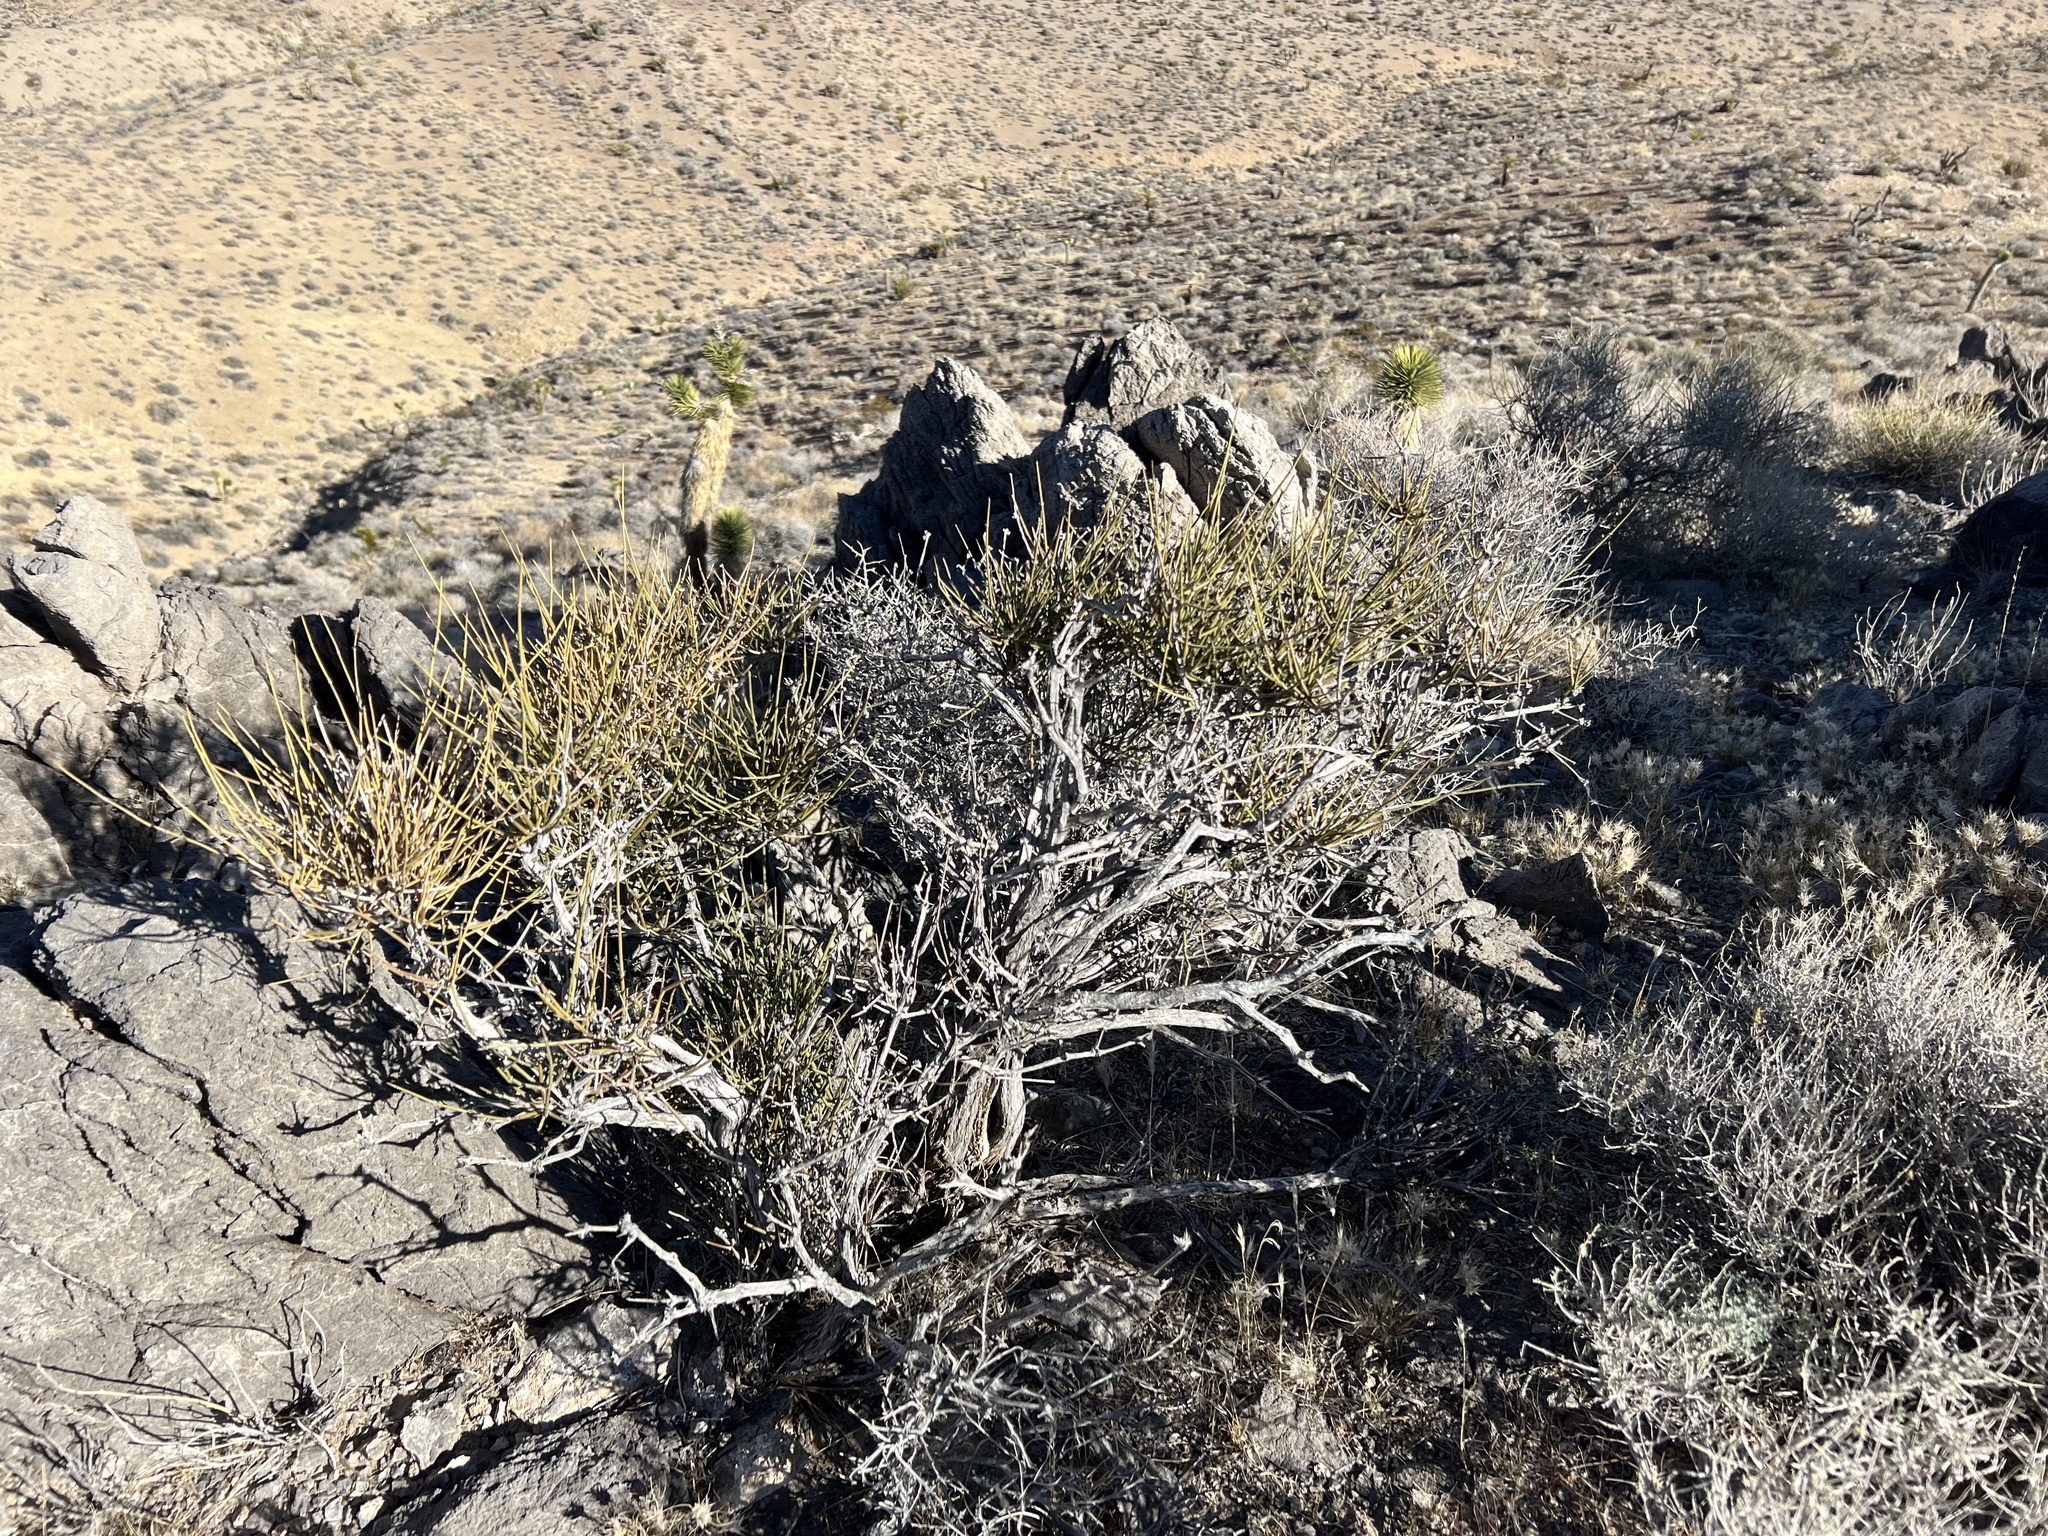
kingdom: Plantae
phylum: Tracheophyta
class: Gnetopsida
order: Ephedrales
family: Ephedraceae
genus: Ephedra
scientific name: Ephedra viridis
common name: Green ephedra
